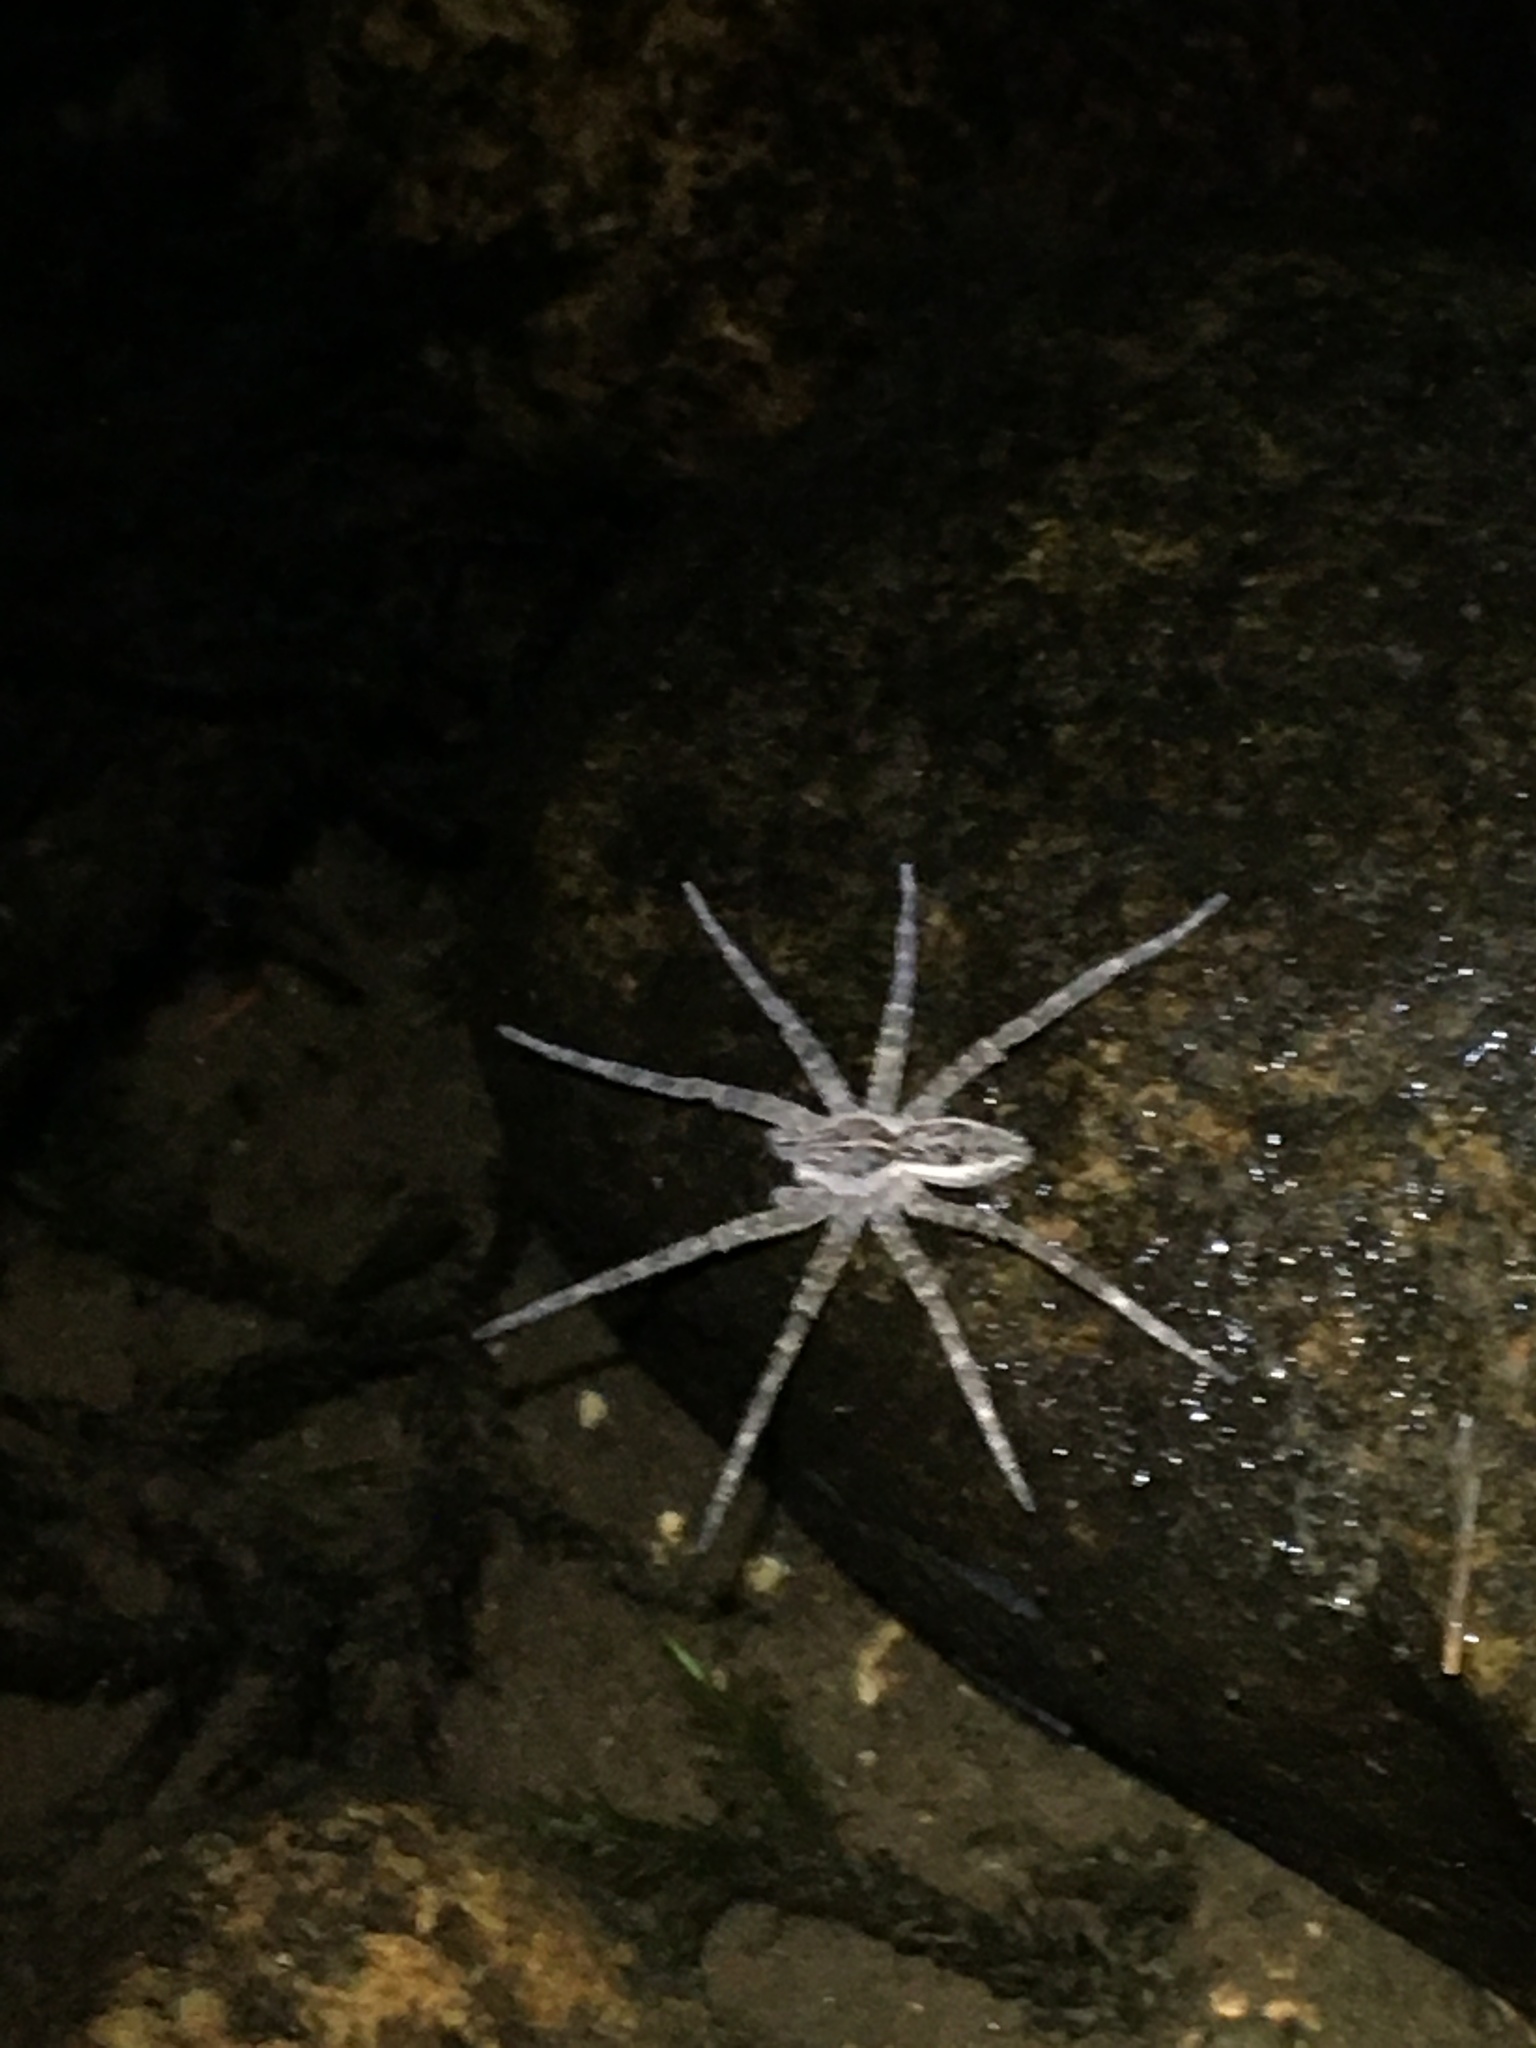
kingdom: Animalia
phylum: Arthropoda
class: Arachnida
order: Araneae
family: Pisauridae
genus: Dolomedes
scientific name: Dolomedes scriptus
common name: Striped fishing spider
